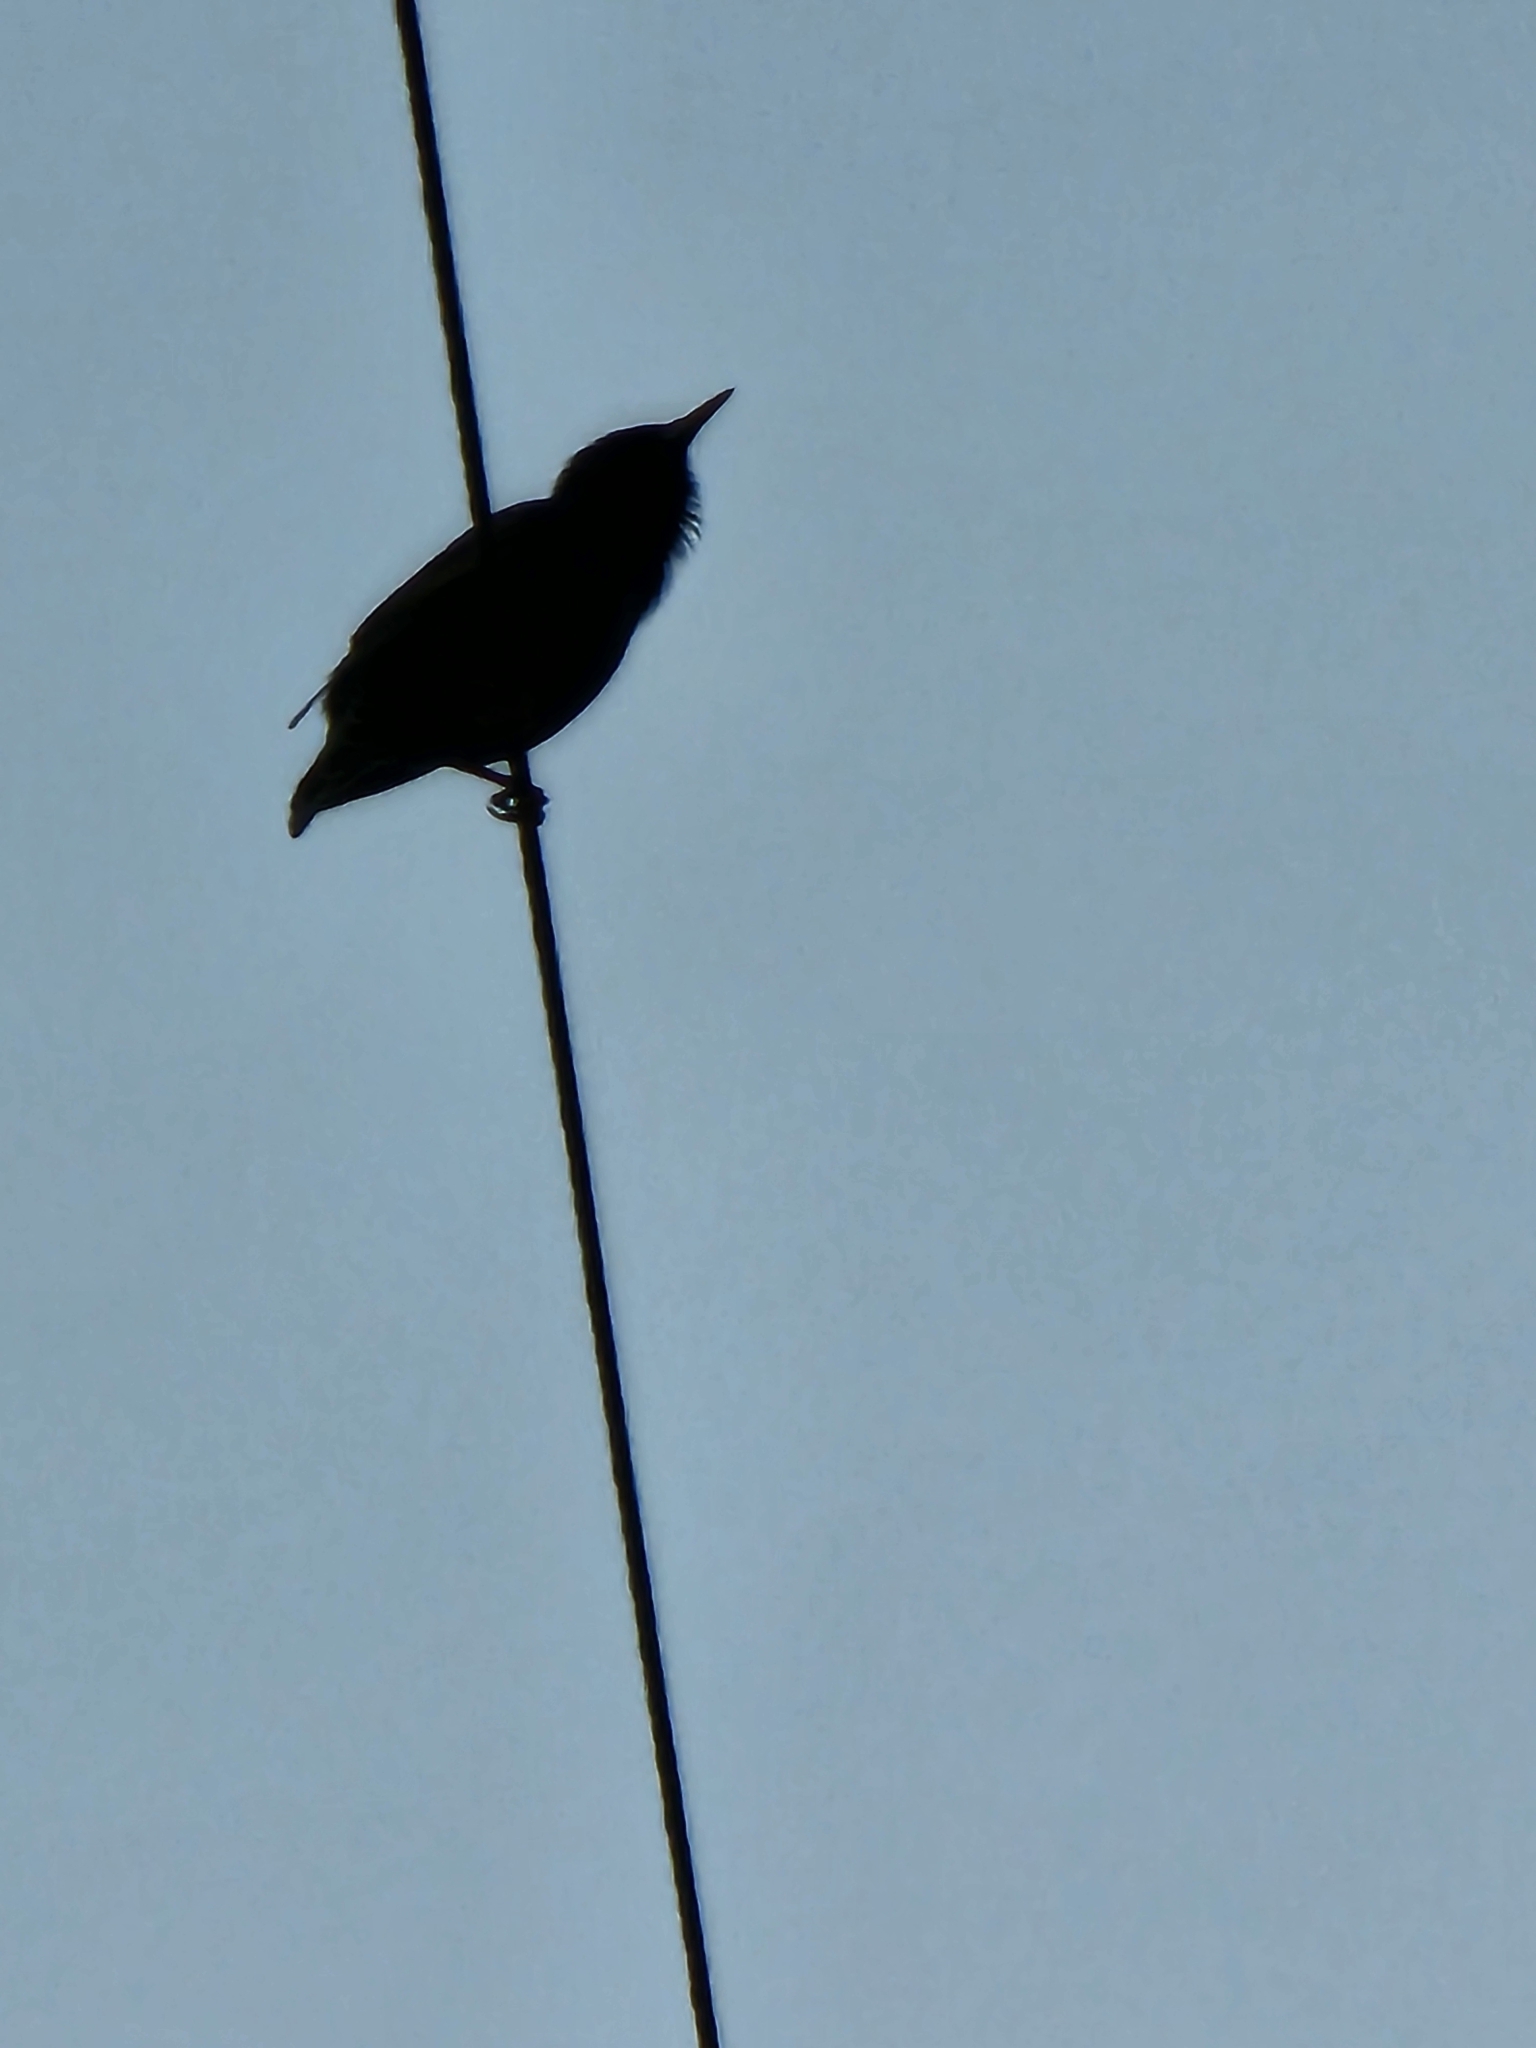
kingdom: Animalia
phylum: Chordata
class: Aves
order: Passeriformes
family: Sturnidae
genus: Sturnus
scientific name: Sturnus vulgaris
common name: Common starling
